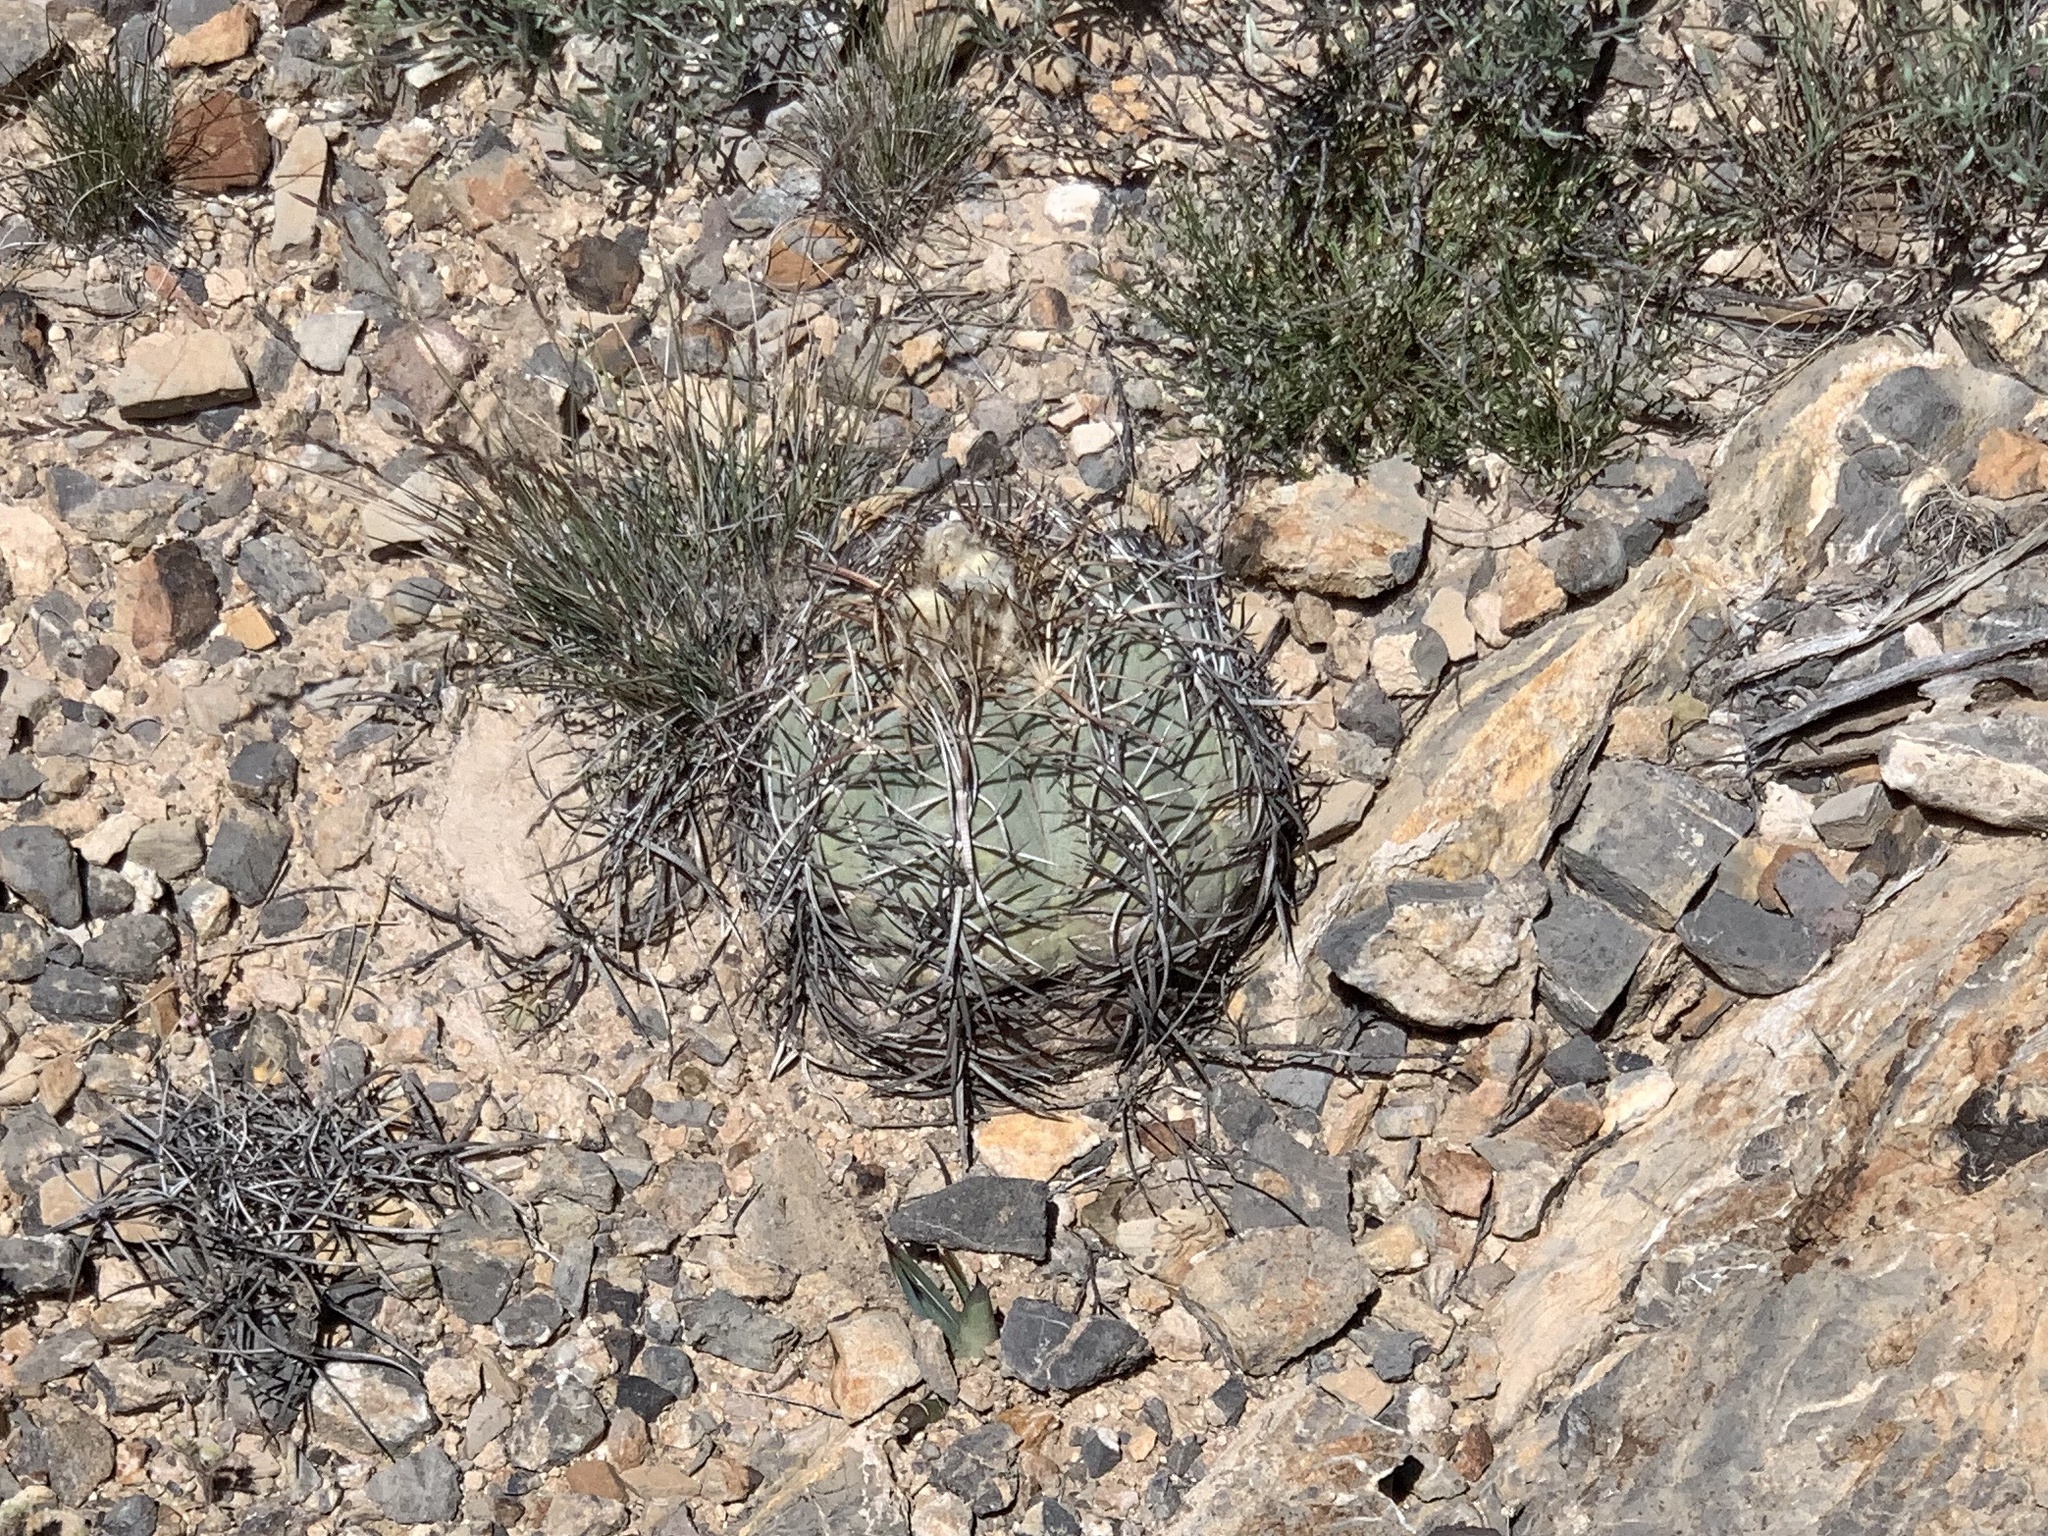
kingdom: Plantae
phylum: Tracheophyta
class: Magnoliopsida
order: Caryophyllales
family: Cactaceae
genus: Echinocactus
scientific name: Echinocactus horizonthalonius
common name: Devilshead
